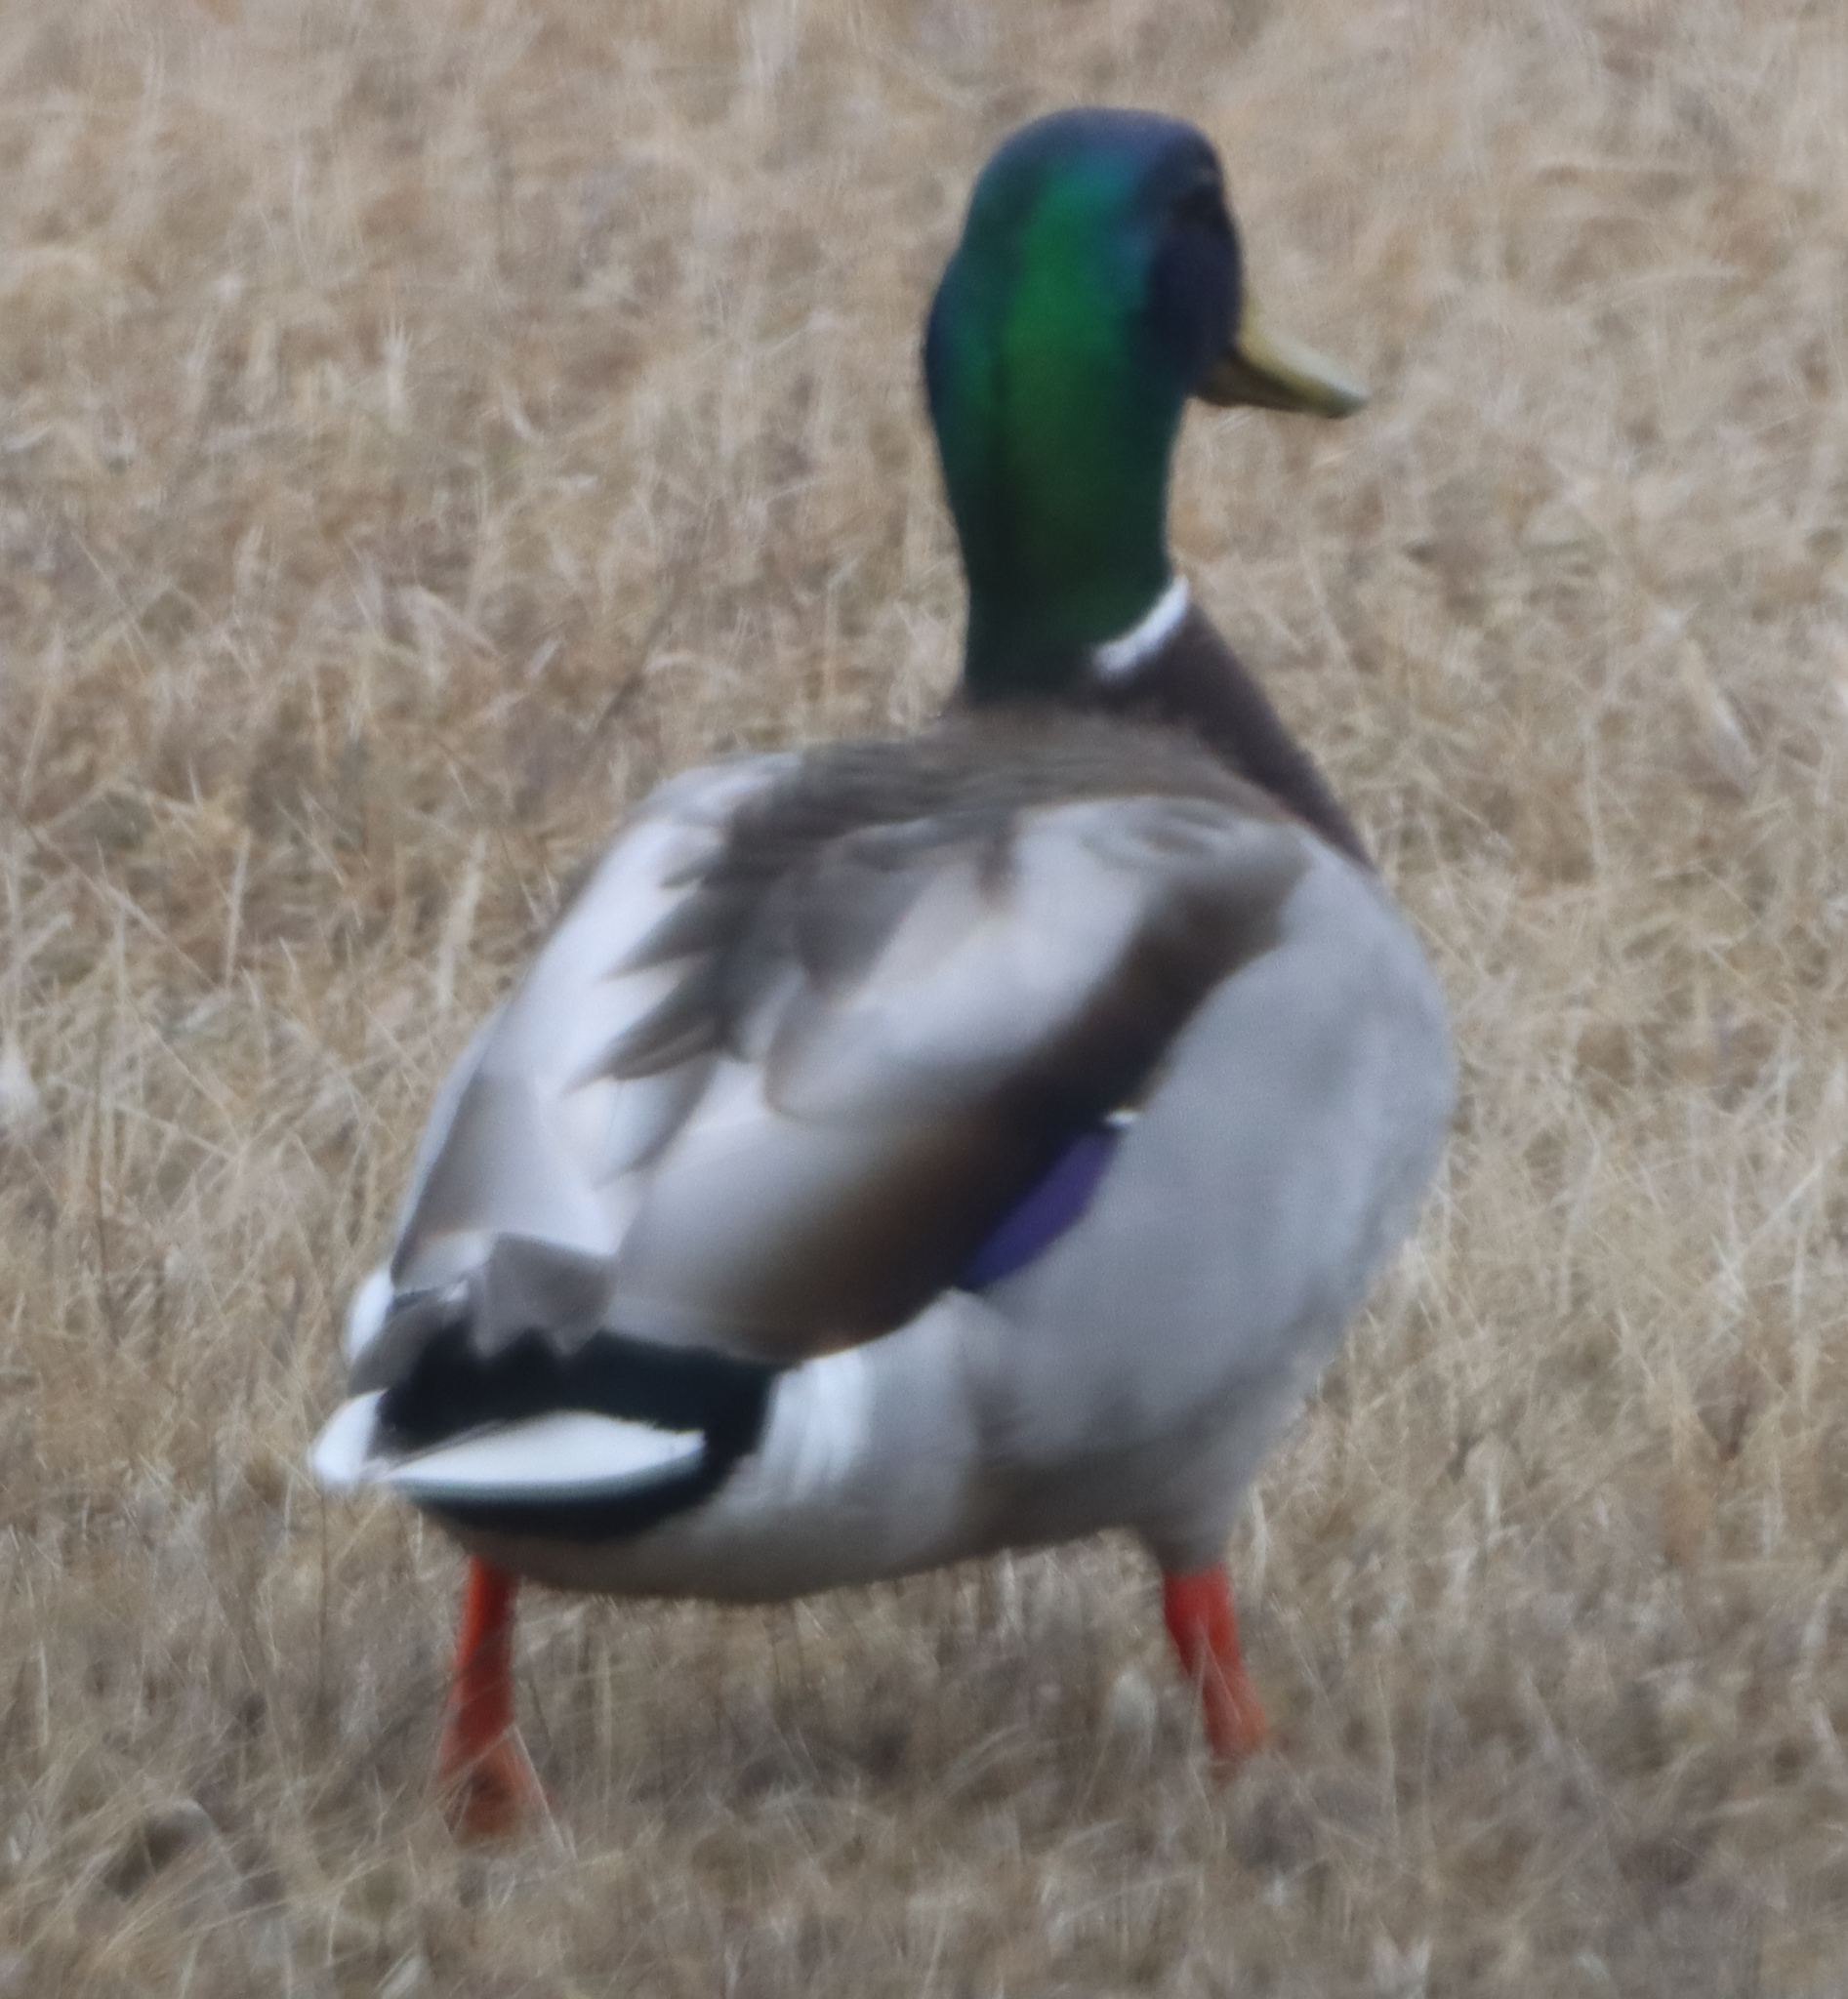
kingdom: Animalia
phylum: Chordata
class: Aves
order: Anseriformes
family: Anatidae
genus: Anas
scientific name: Anas platyrhynchos
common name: Mallard
